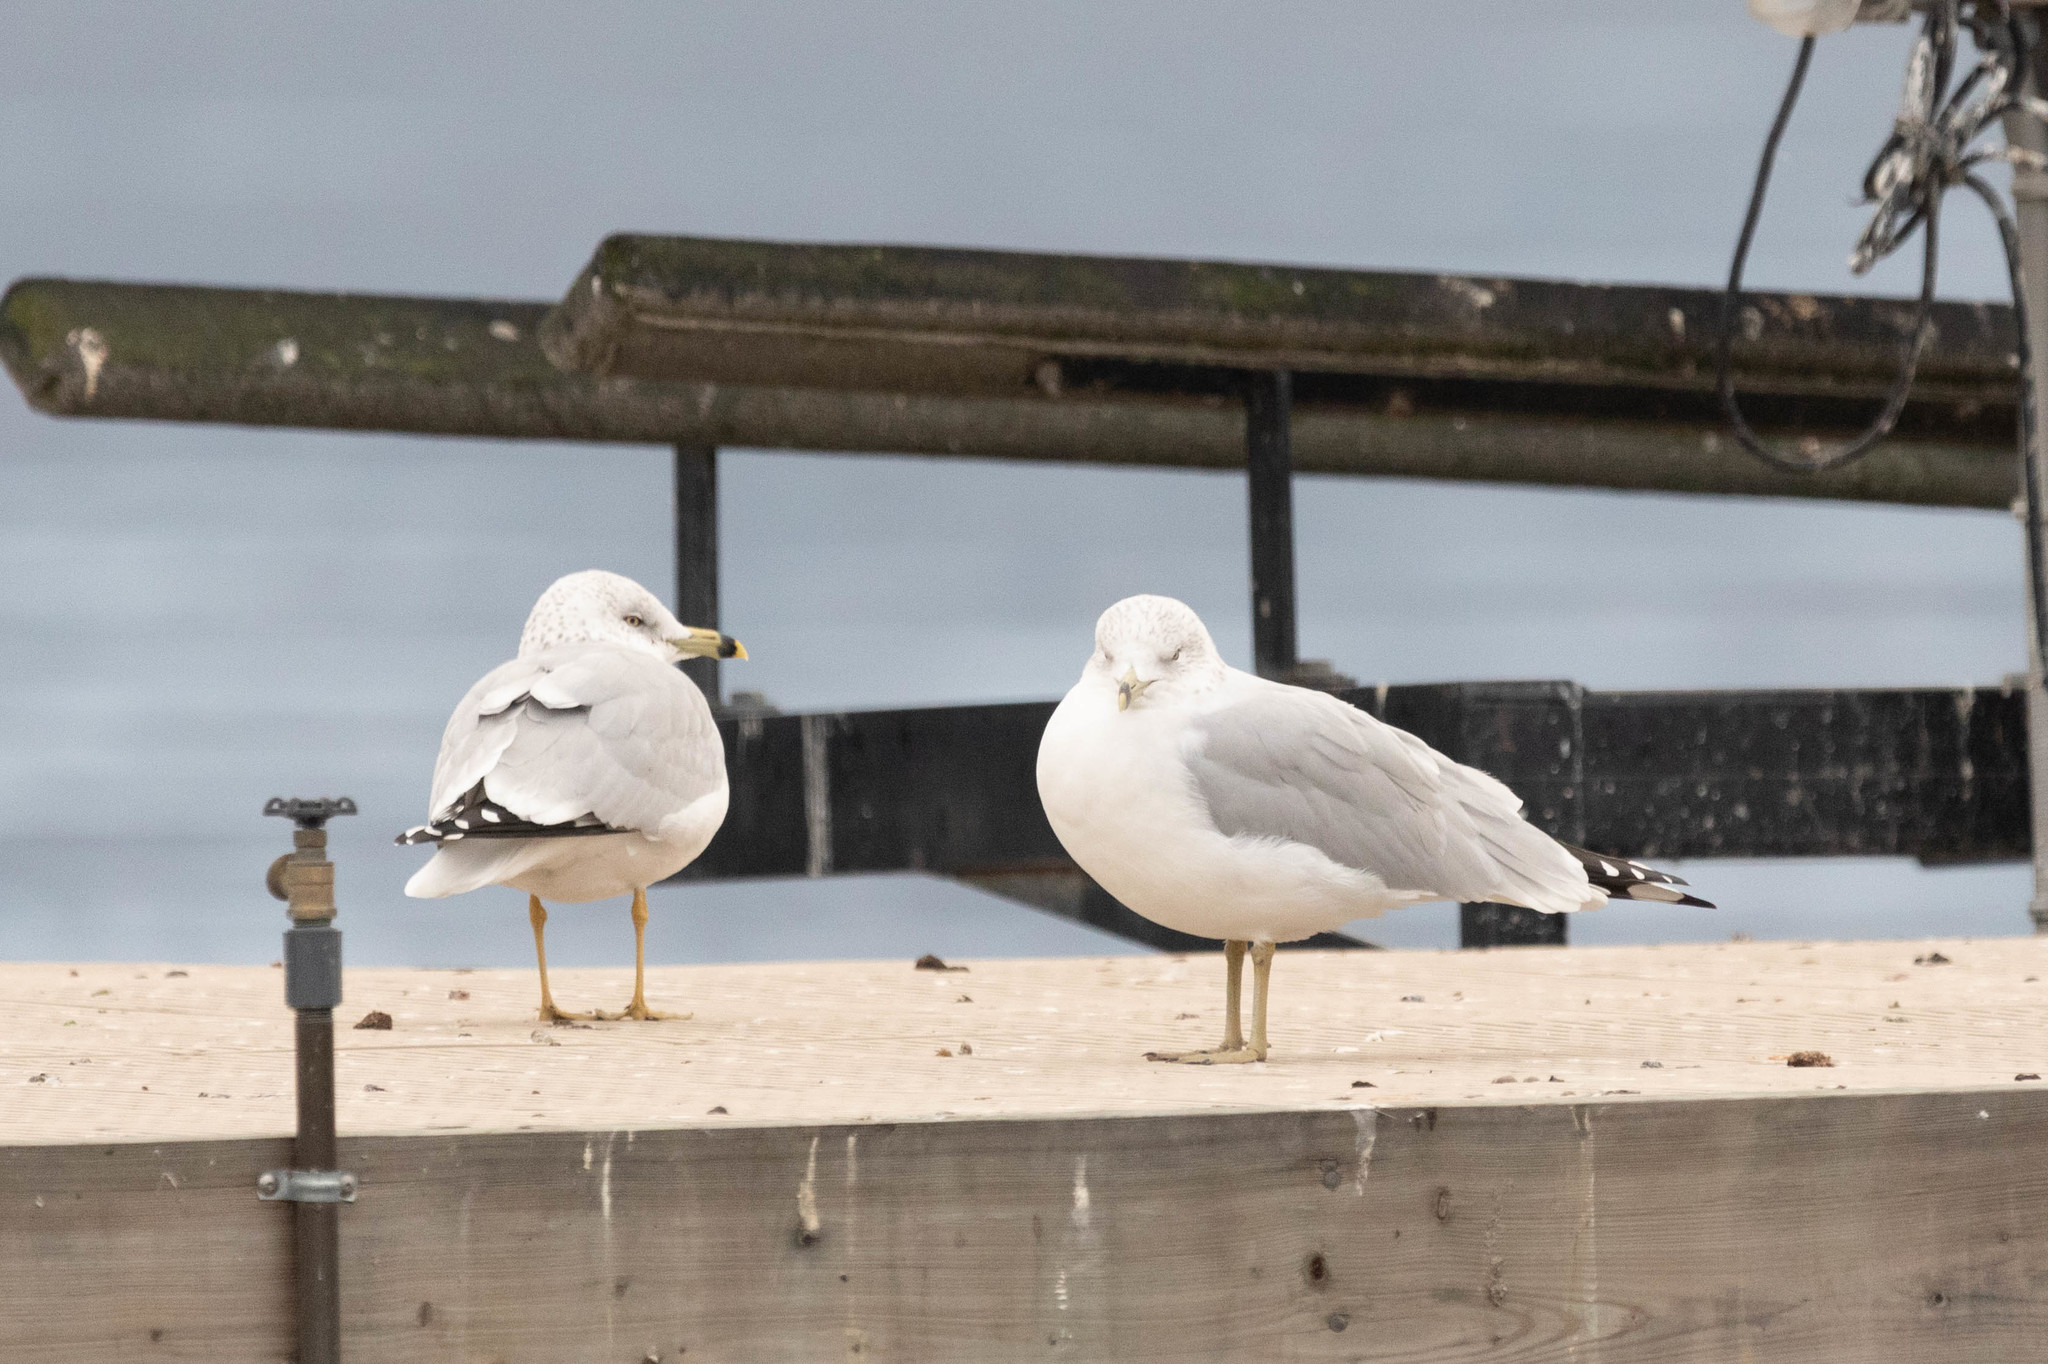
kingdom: Animalia
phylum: Chordata
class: Aves
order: Charadriiformes
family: Laridae
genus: Larus
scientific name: Larus delawarensis
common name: Ring-billed gull
